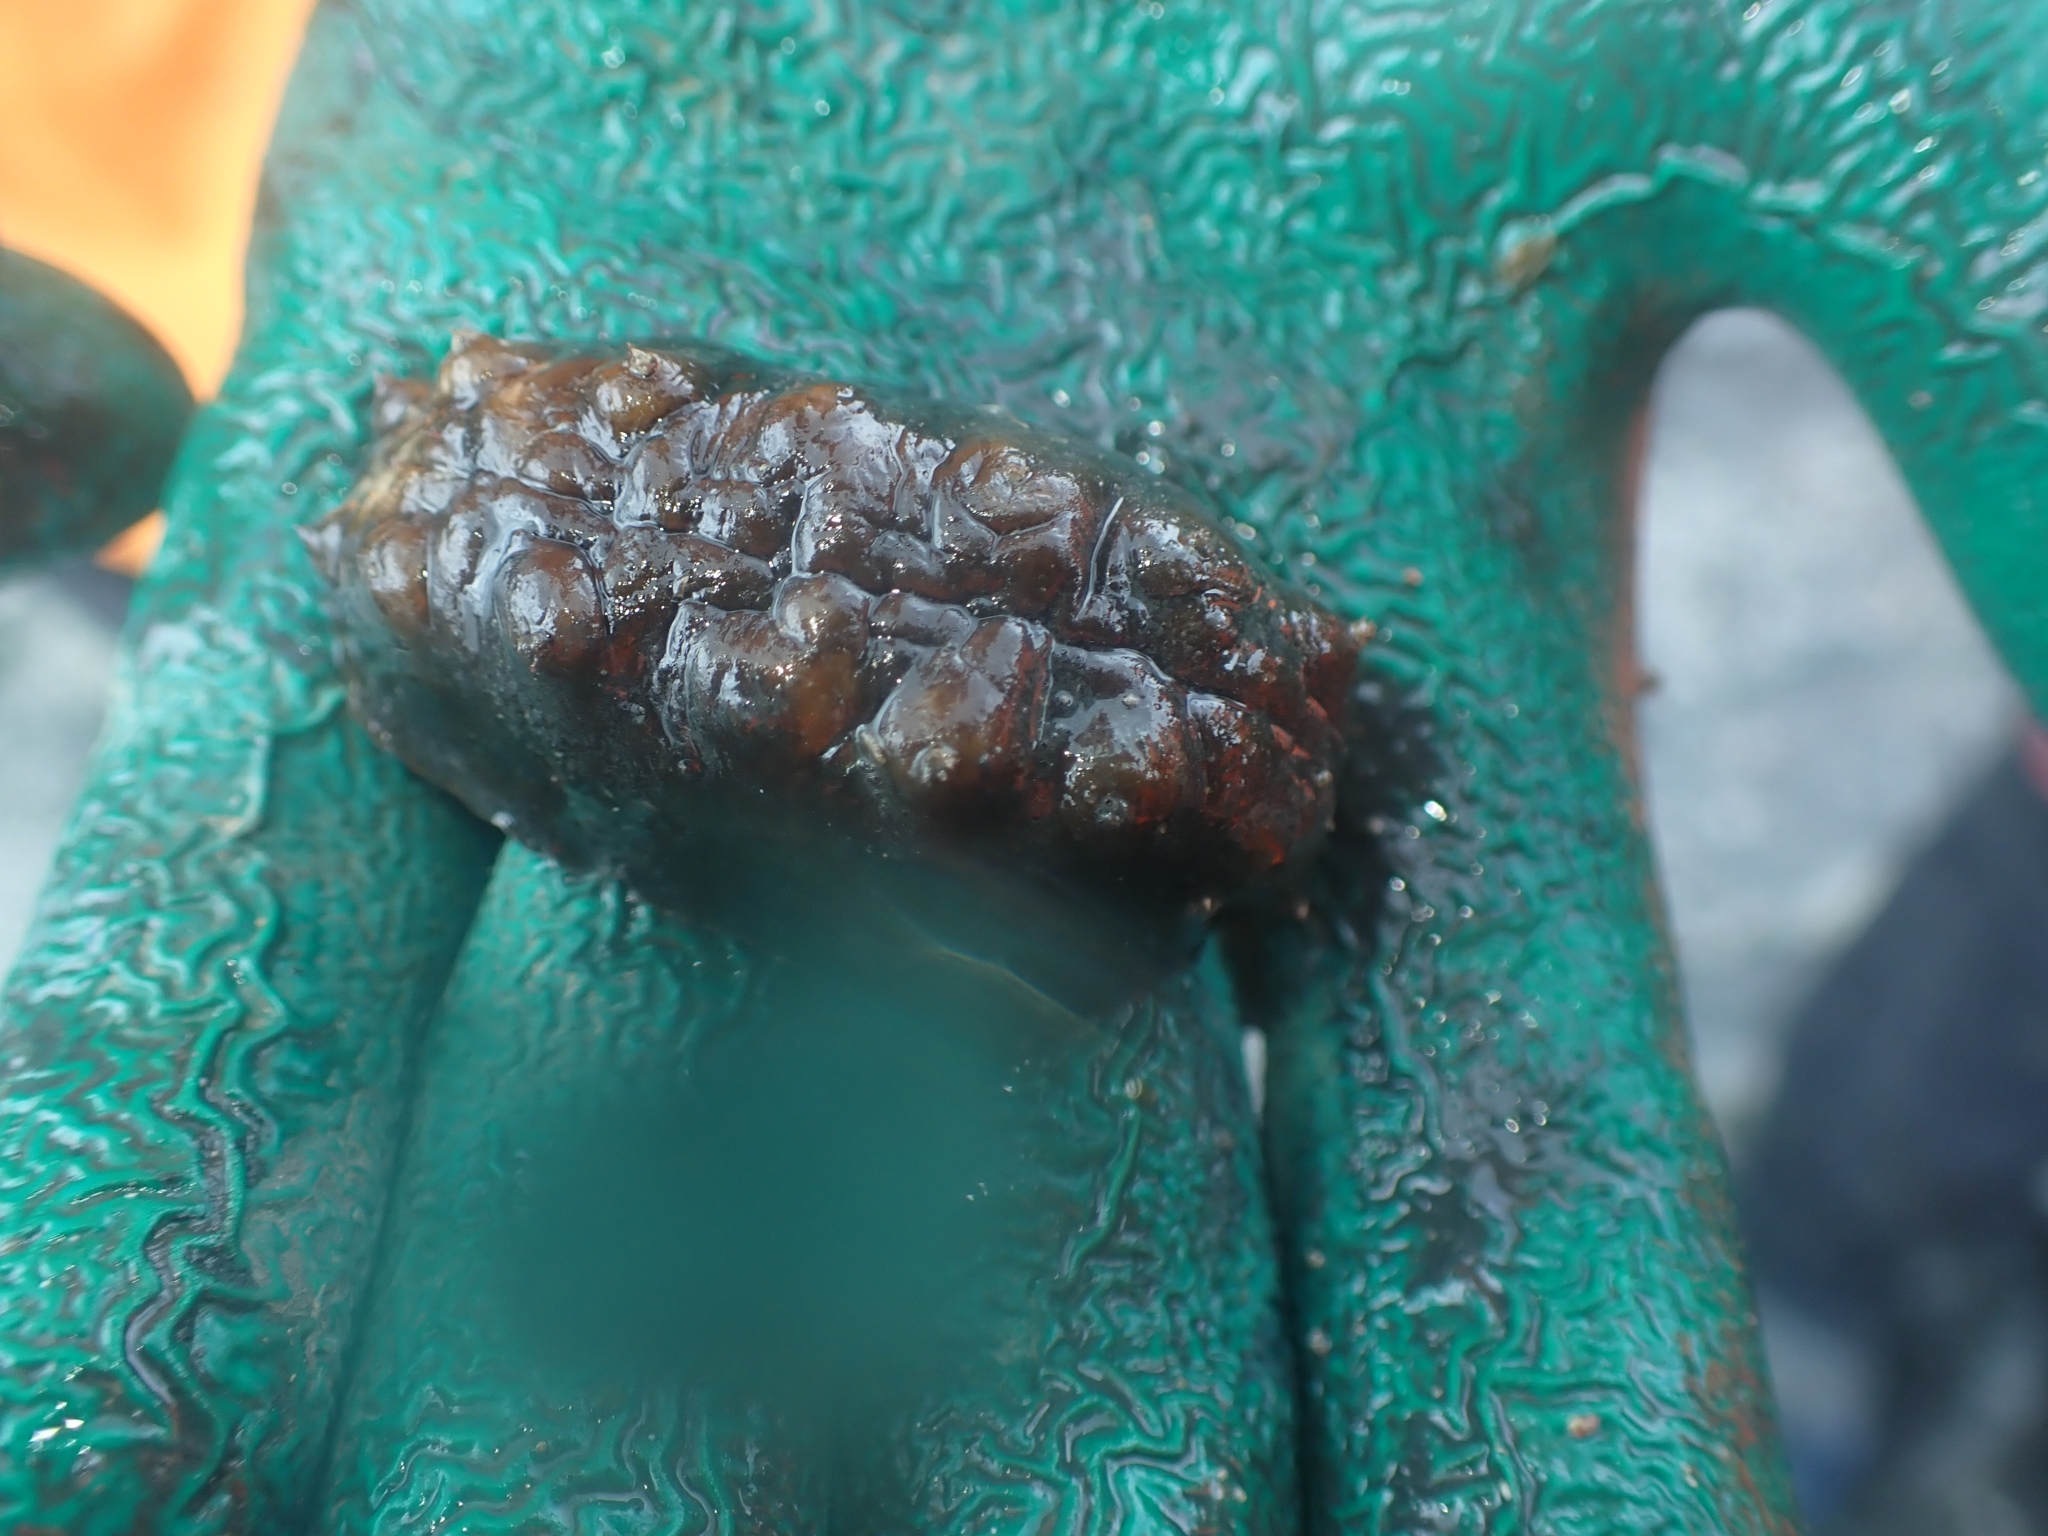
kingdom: Animalia
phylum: Mollusca
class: Polyplacophora
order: Chitonida
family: Acanthochitonidae
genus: Cryptoconchus
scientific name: Cryptoconchus porosus
